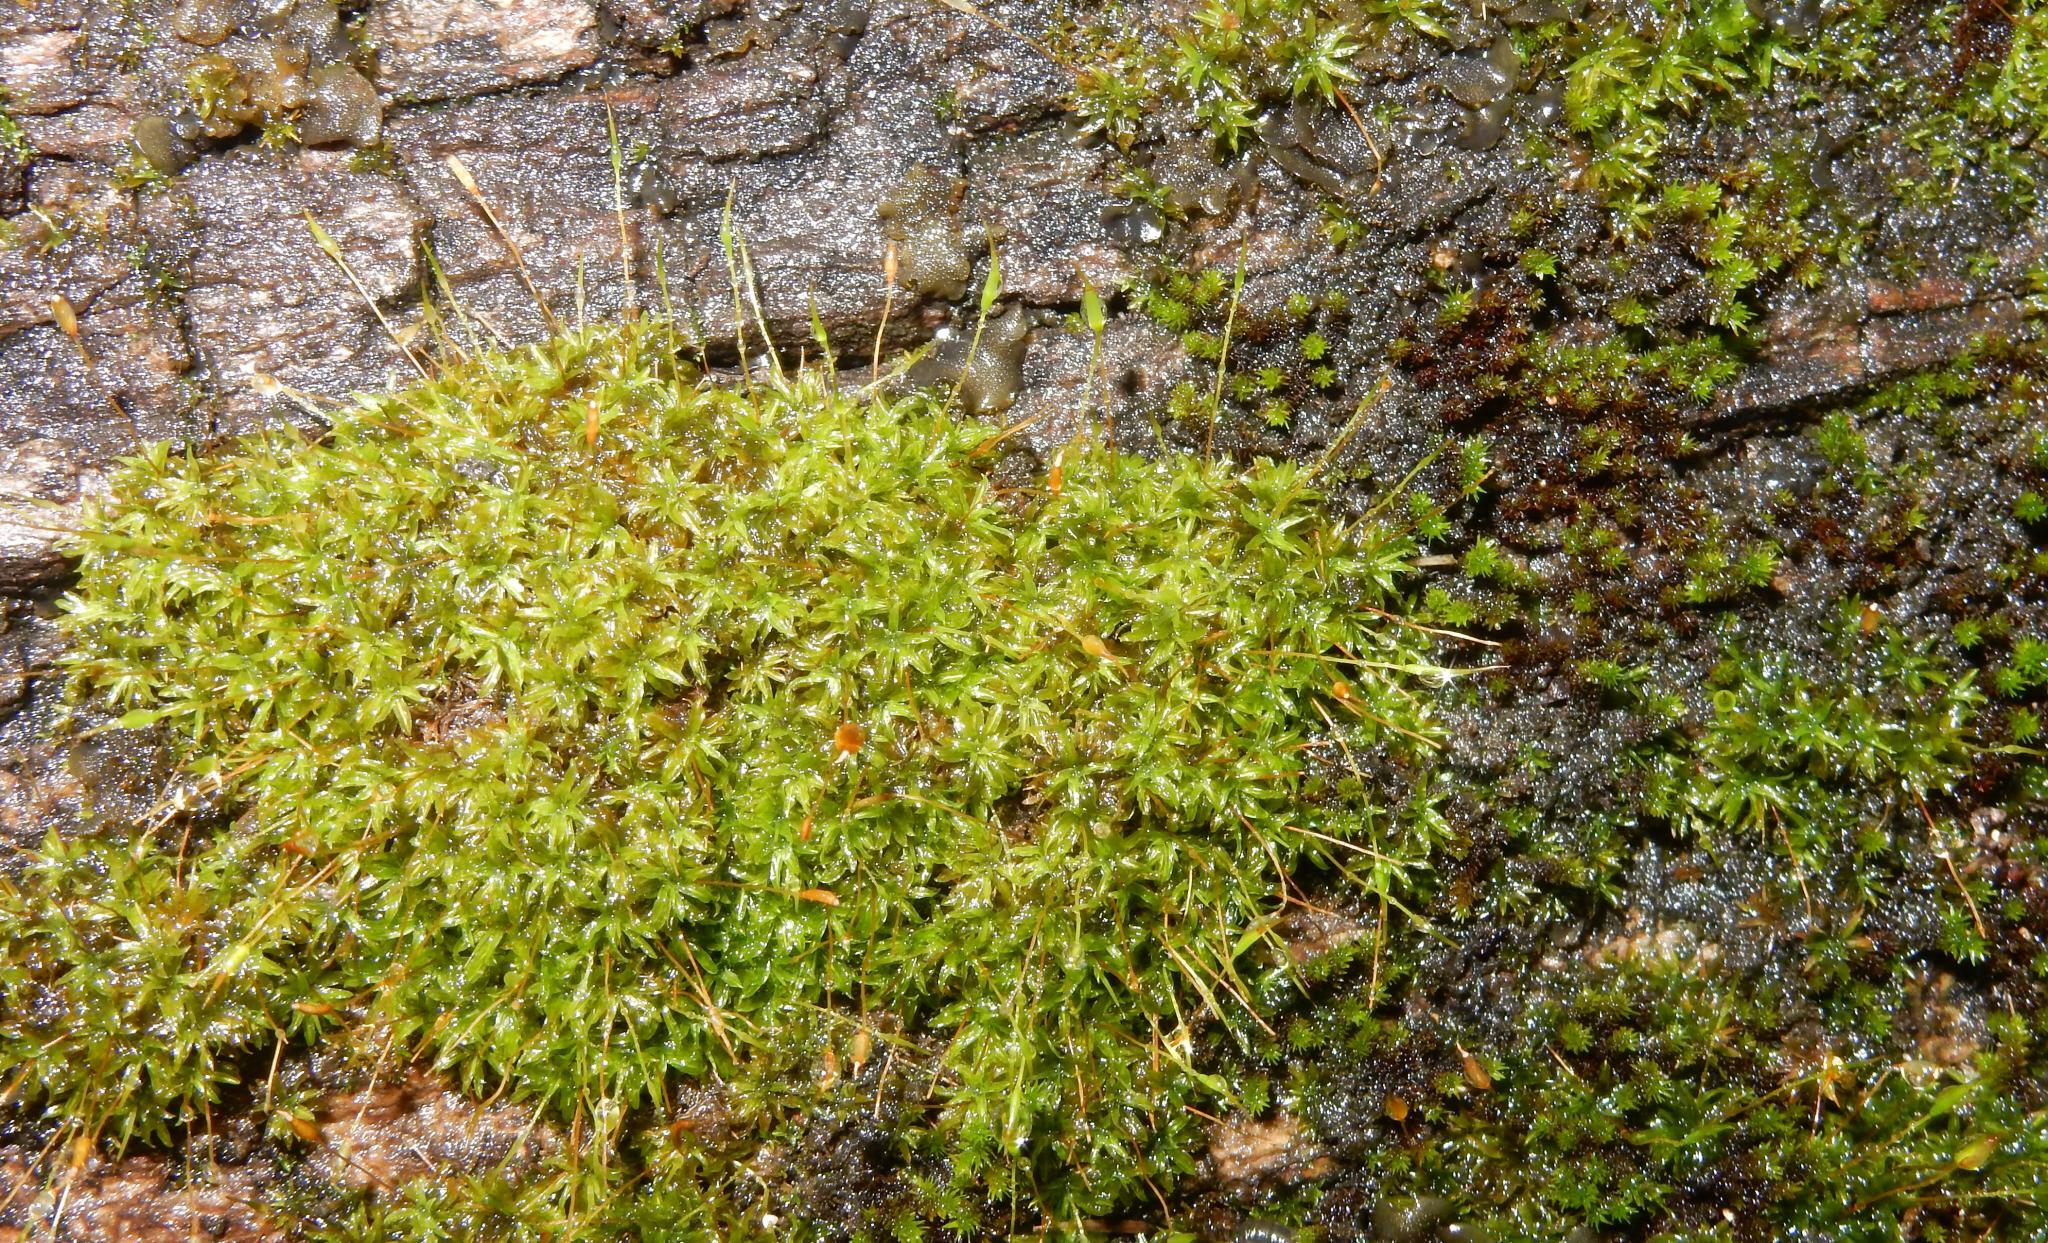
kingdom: Plantae
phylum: Bryophyta
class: Bryopsida
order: Pottiales
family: Pottiaceae
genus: Tortella
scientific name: Tortella humilis
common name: Small twisted moss
